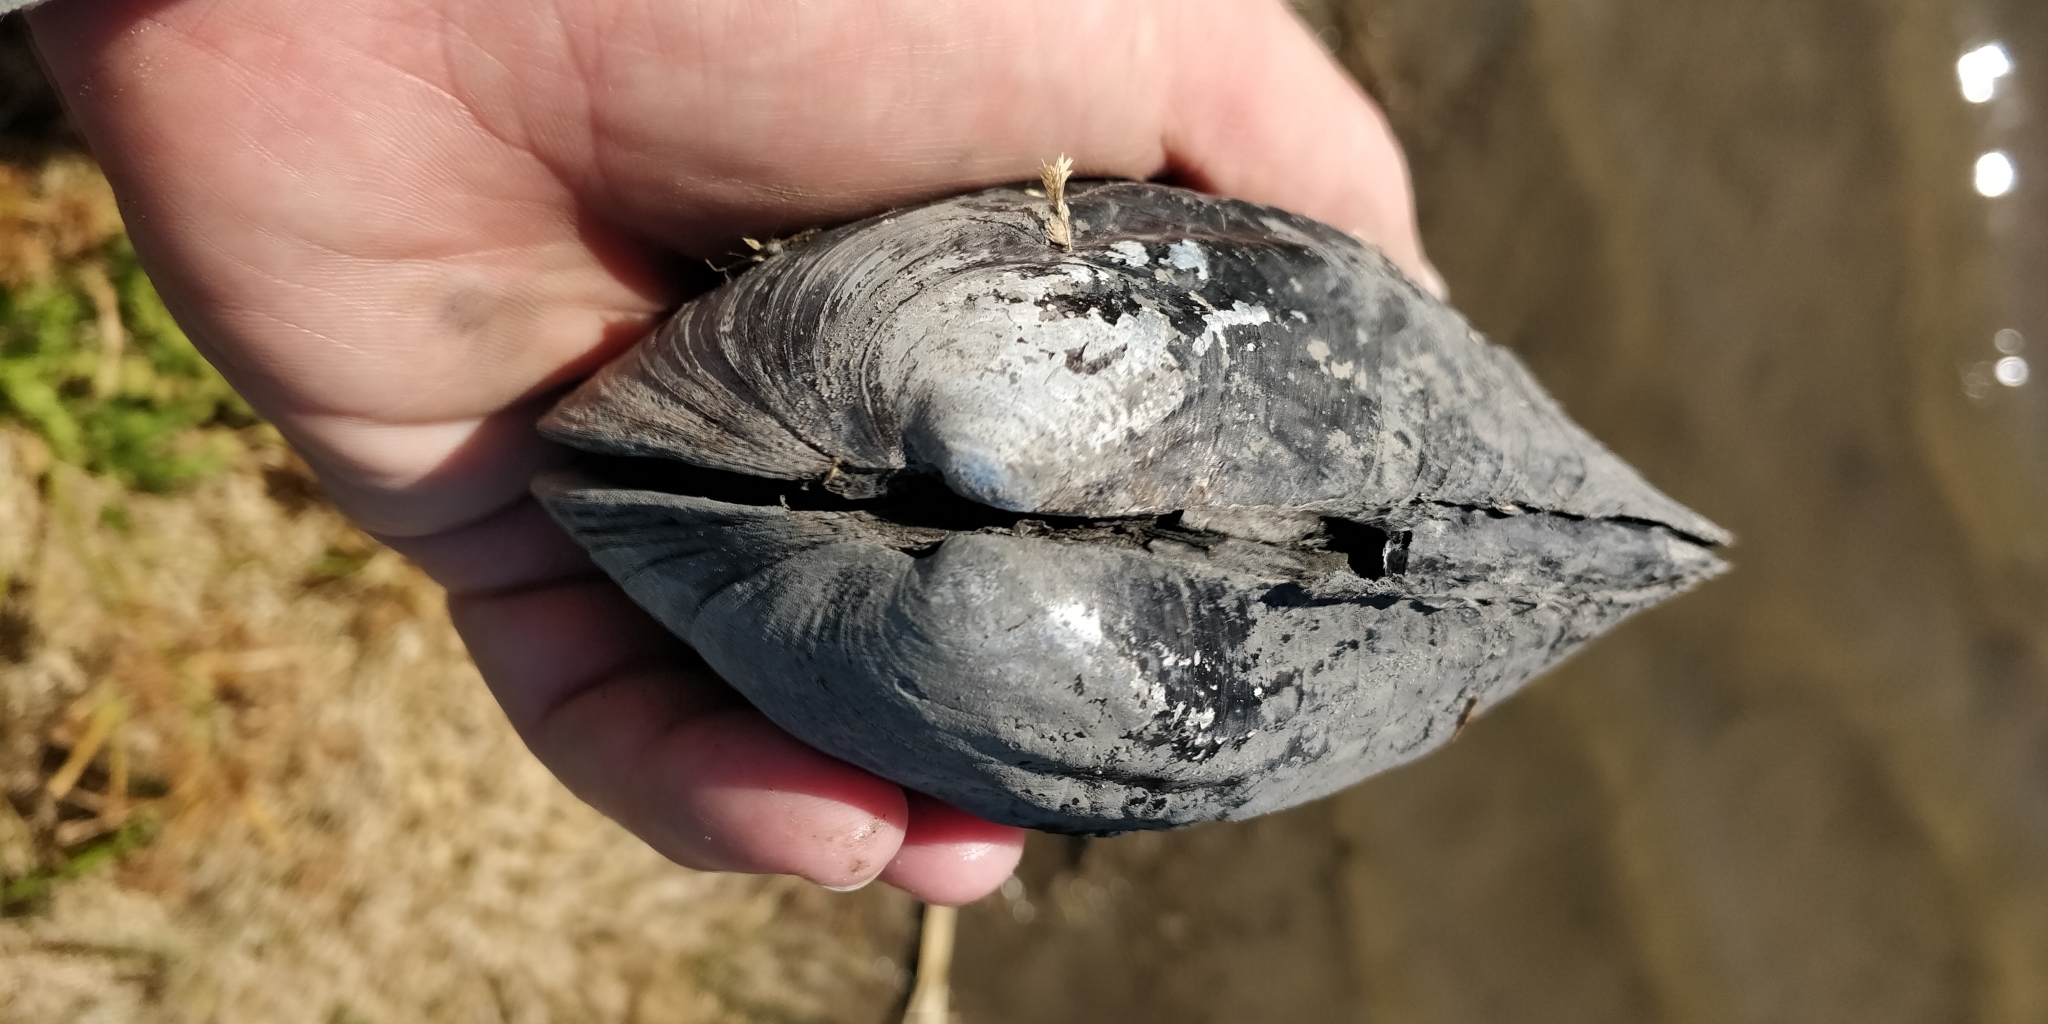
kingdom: Animalia
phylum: Mollusca
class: Bivalvia
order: Unionida
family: Unionidae
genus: Amblema
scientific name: Amblema plicata
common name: Threeridge
